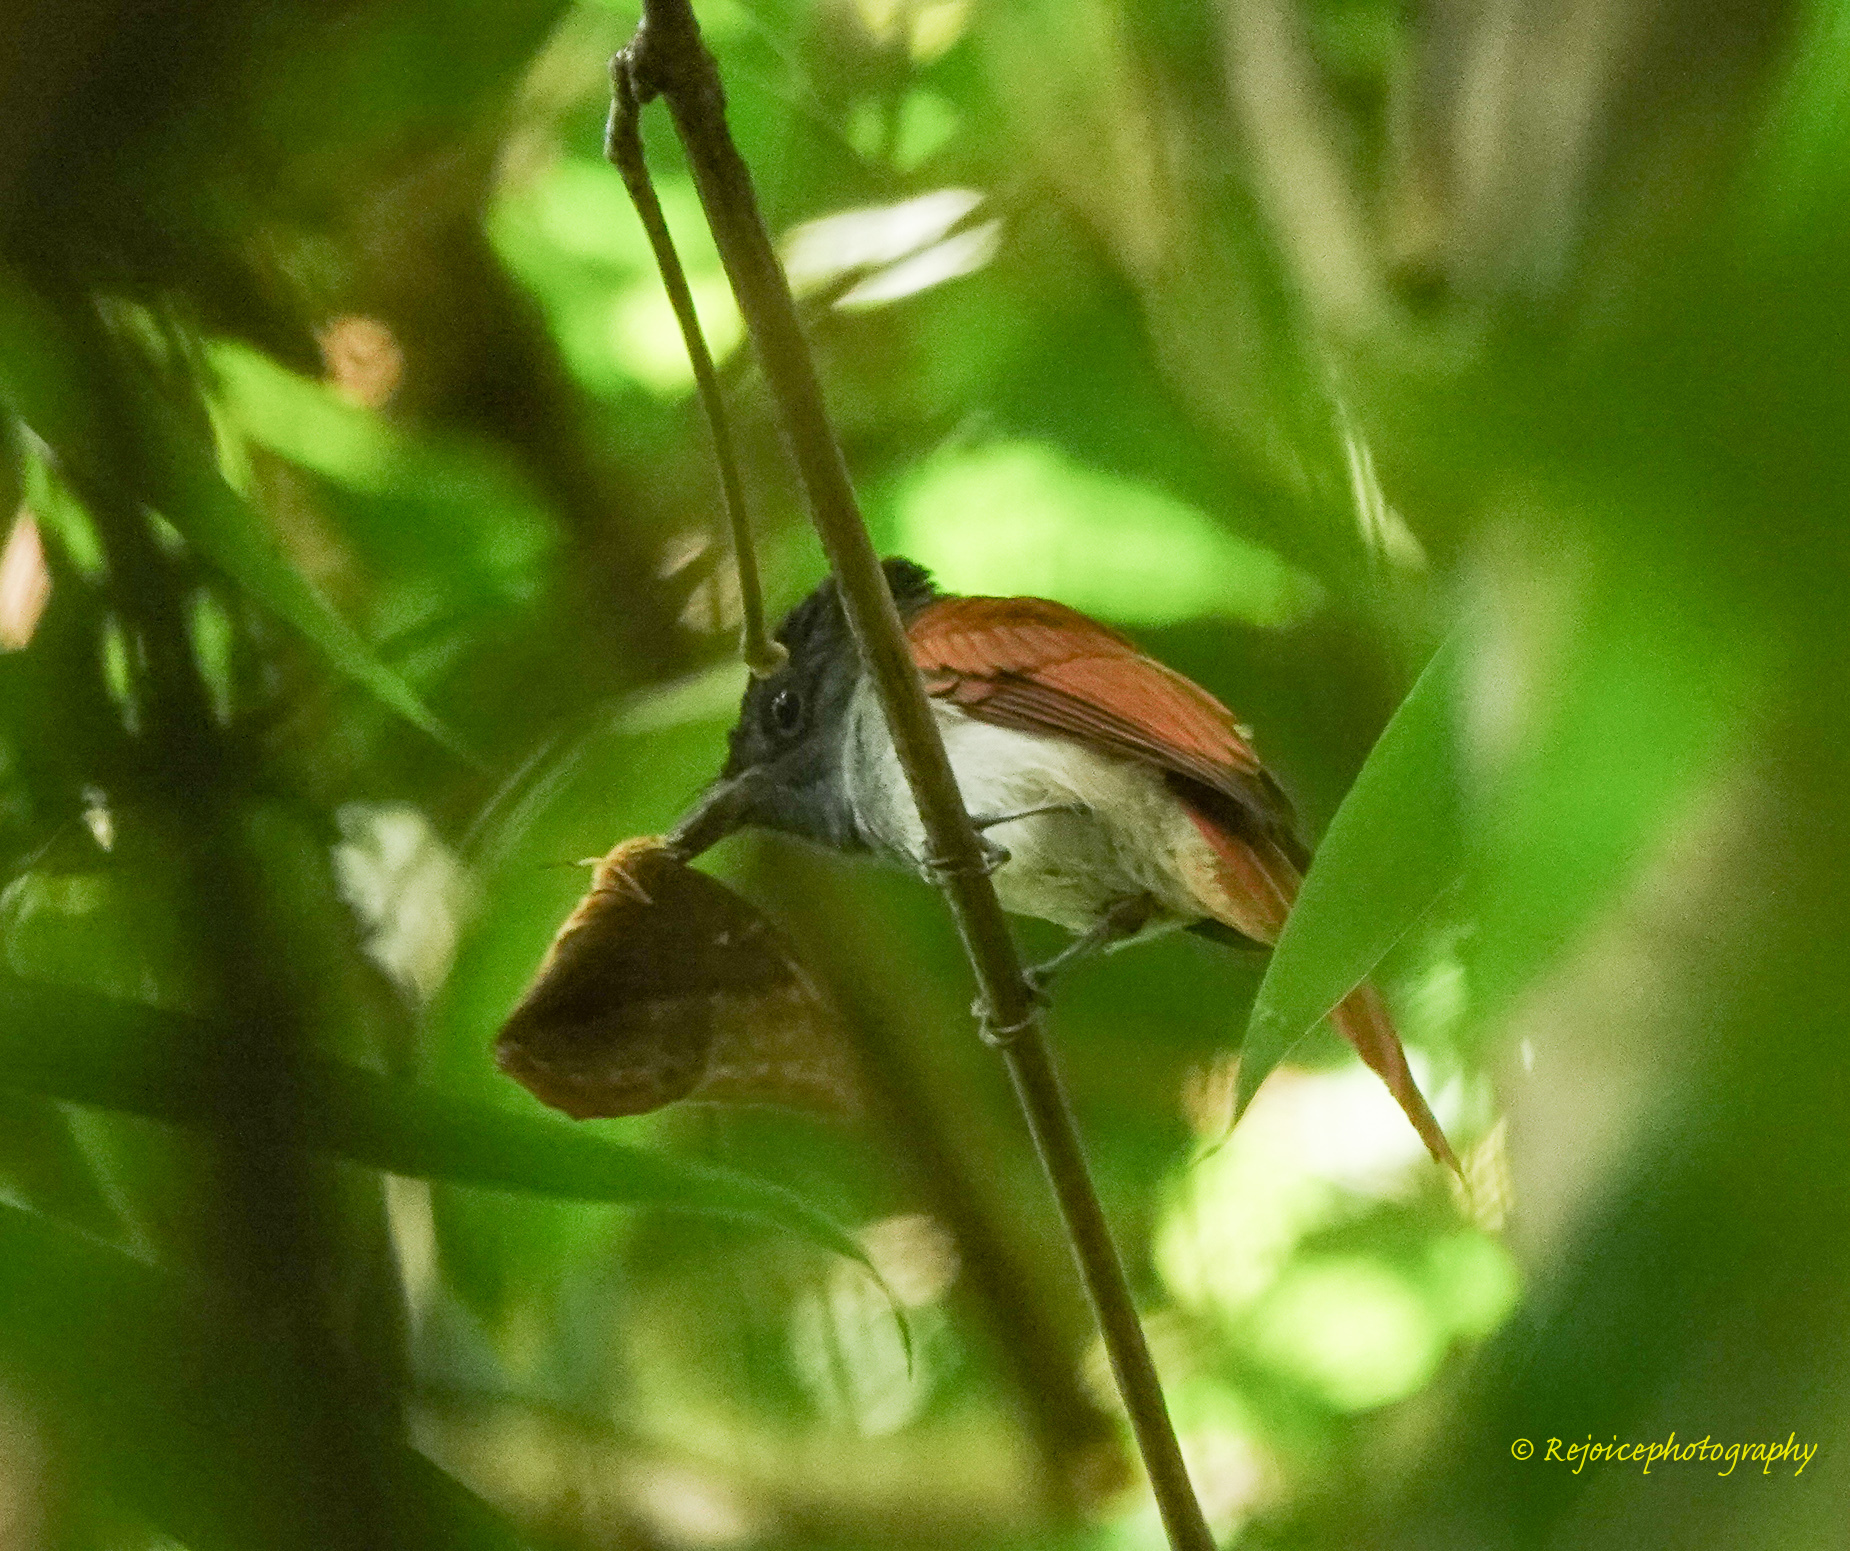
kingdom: Animalia
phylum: Chordata
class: Aves
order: Passeriformes
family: Monarchidae
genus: Terpsiphone
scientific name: Terpsiphone paradisi
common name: Indian paradise flycatcher
